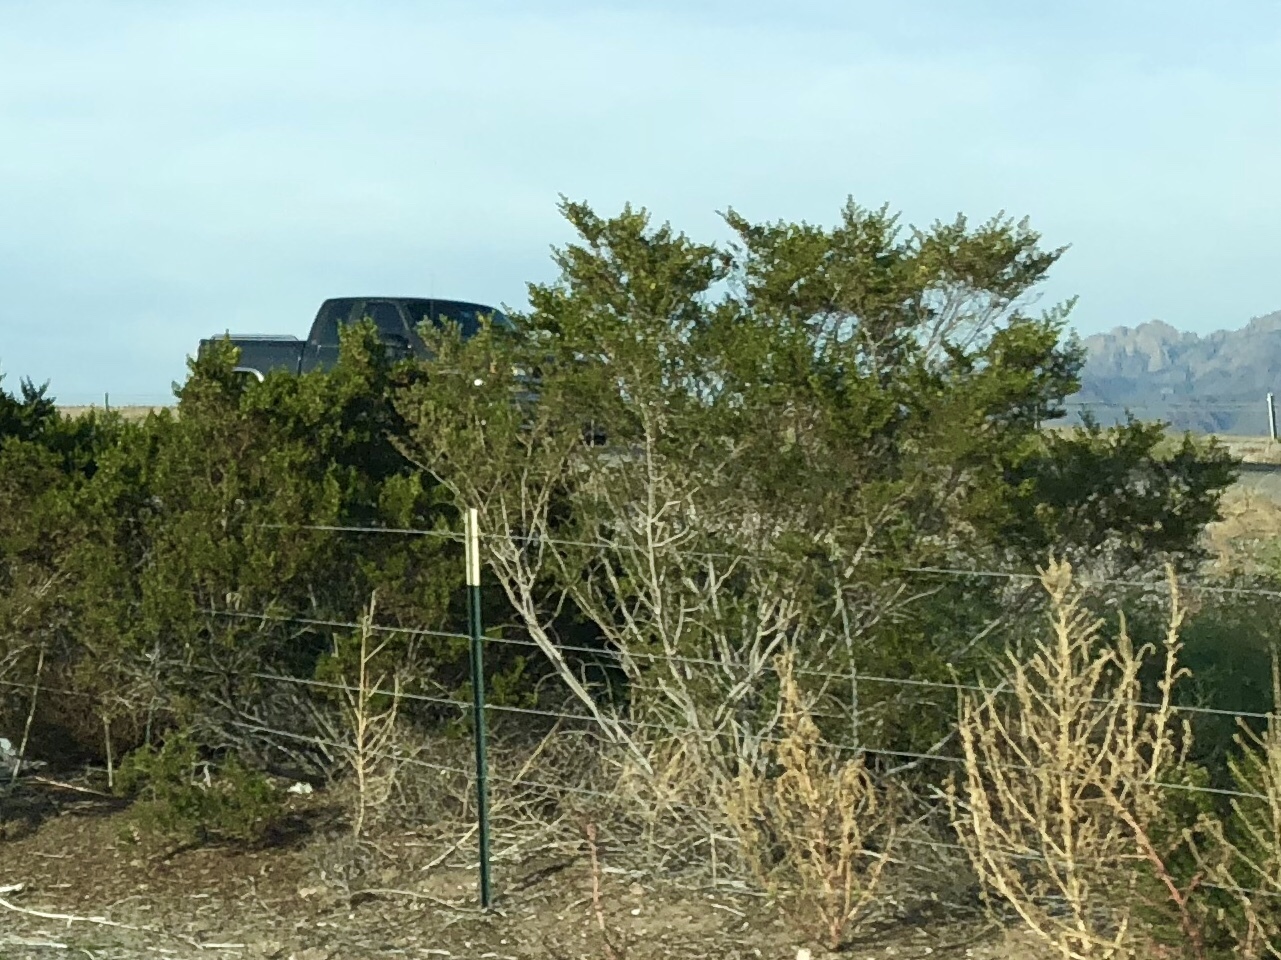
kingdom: Plantae
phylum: Tracheophyta
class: Magnoliopsida
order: Zygophyllales
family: Zygophyllaceae
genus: Larrea
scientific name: Larrea tridentata
